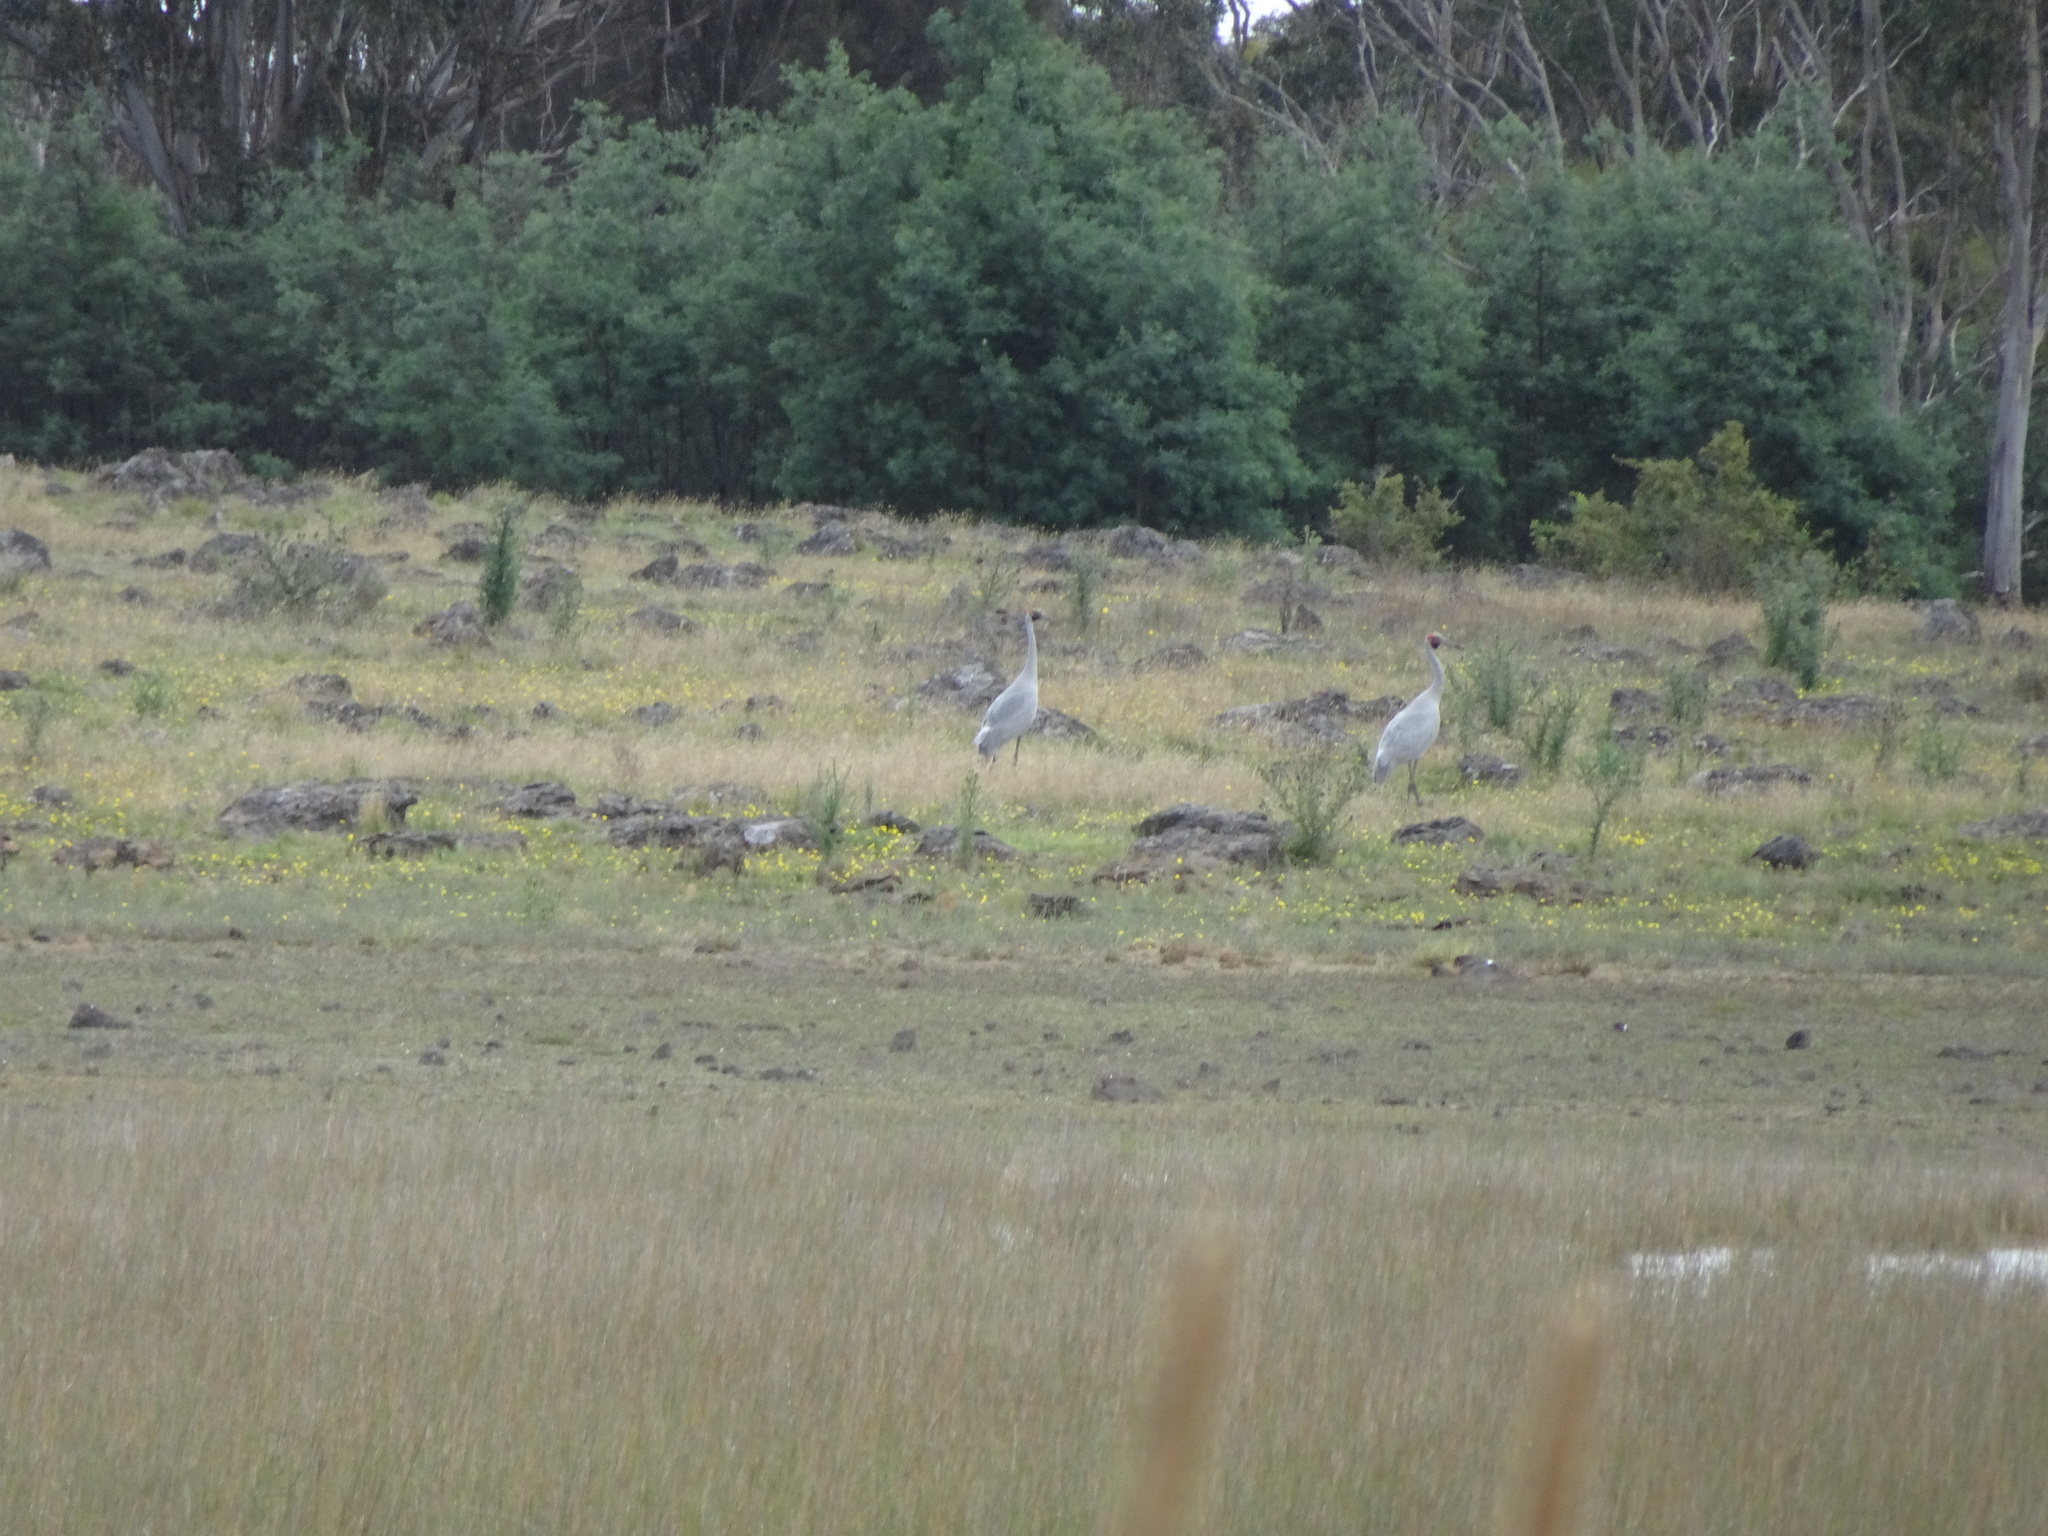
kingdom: Animalia
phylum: Chordata
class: Aves
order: Gruiformes
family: Gruidae
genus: Grus
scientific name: Grus rubicunda
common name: Brolga
